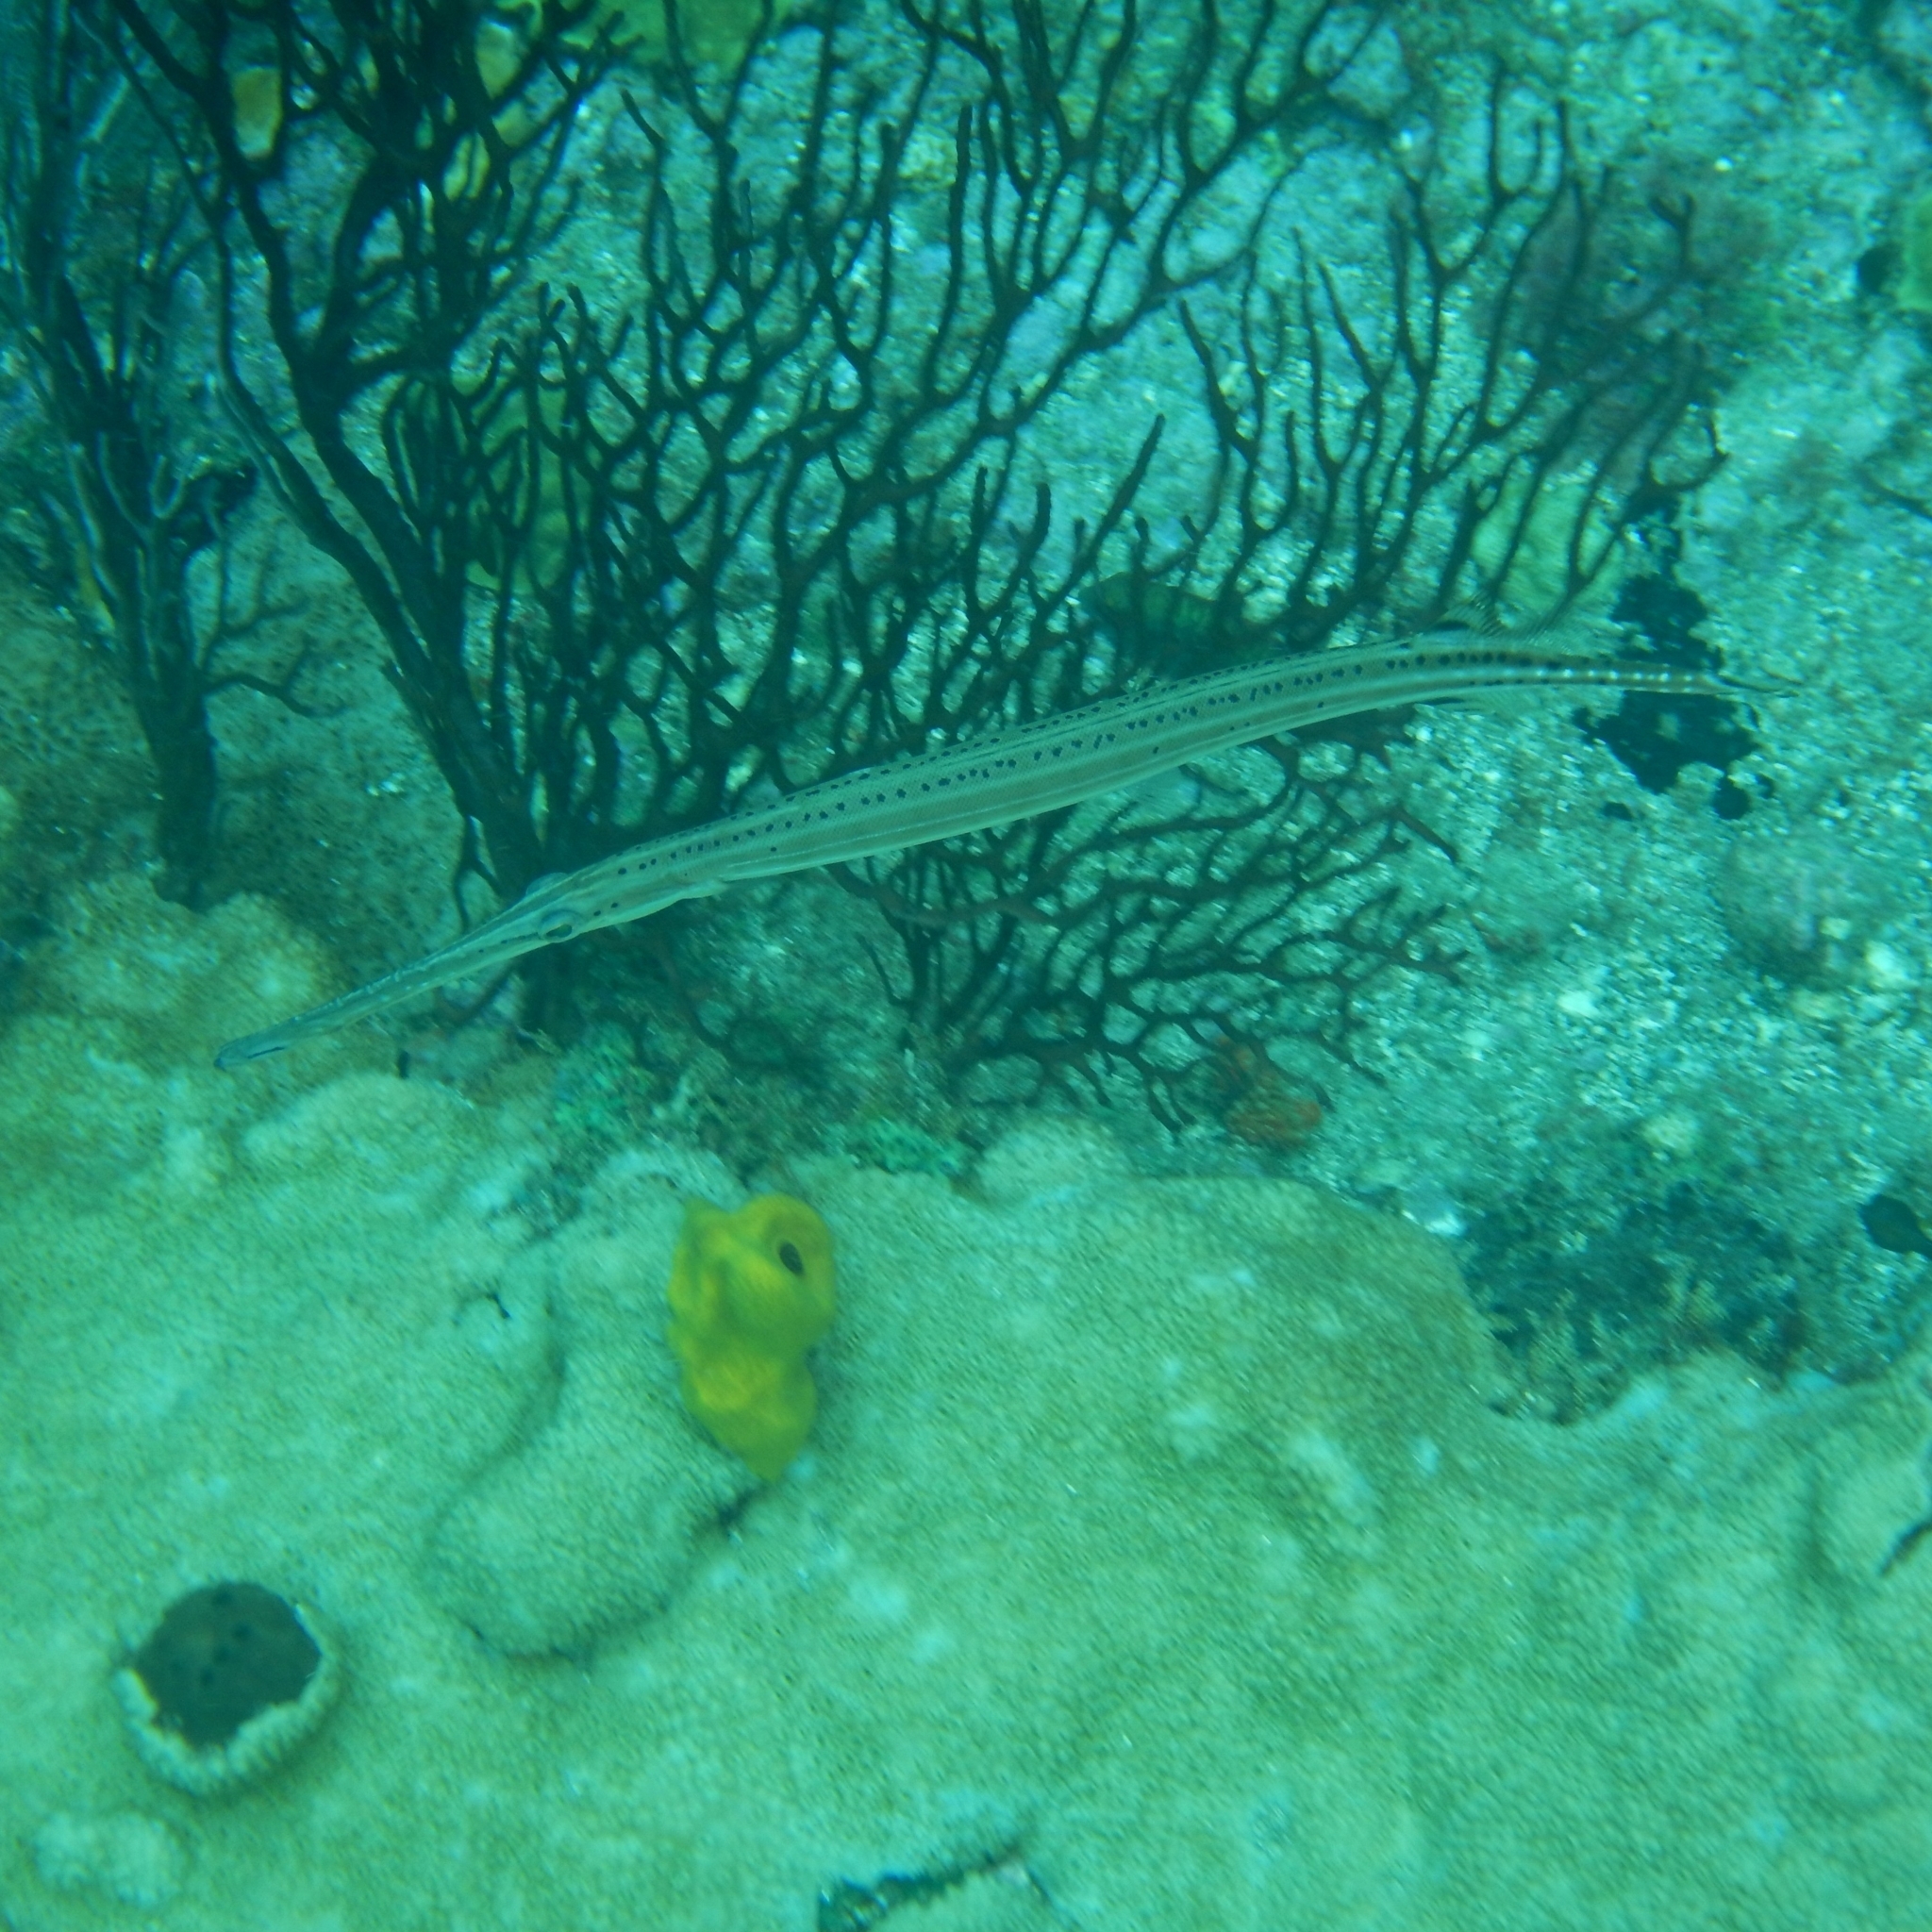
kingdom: Animalia
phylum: Chordata
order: Syngnathiformes
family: Aulostomidae
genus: Aulostomus
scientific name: Aulostomus maculatus
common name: West atlantic trumpetfish
